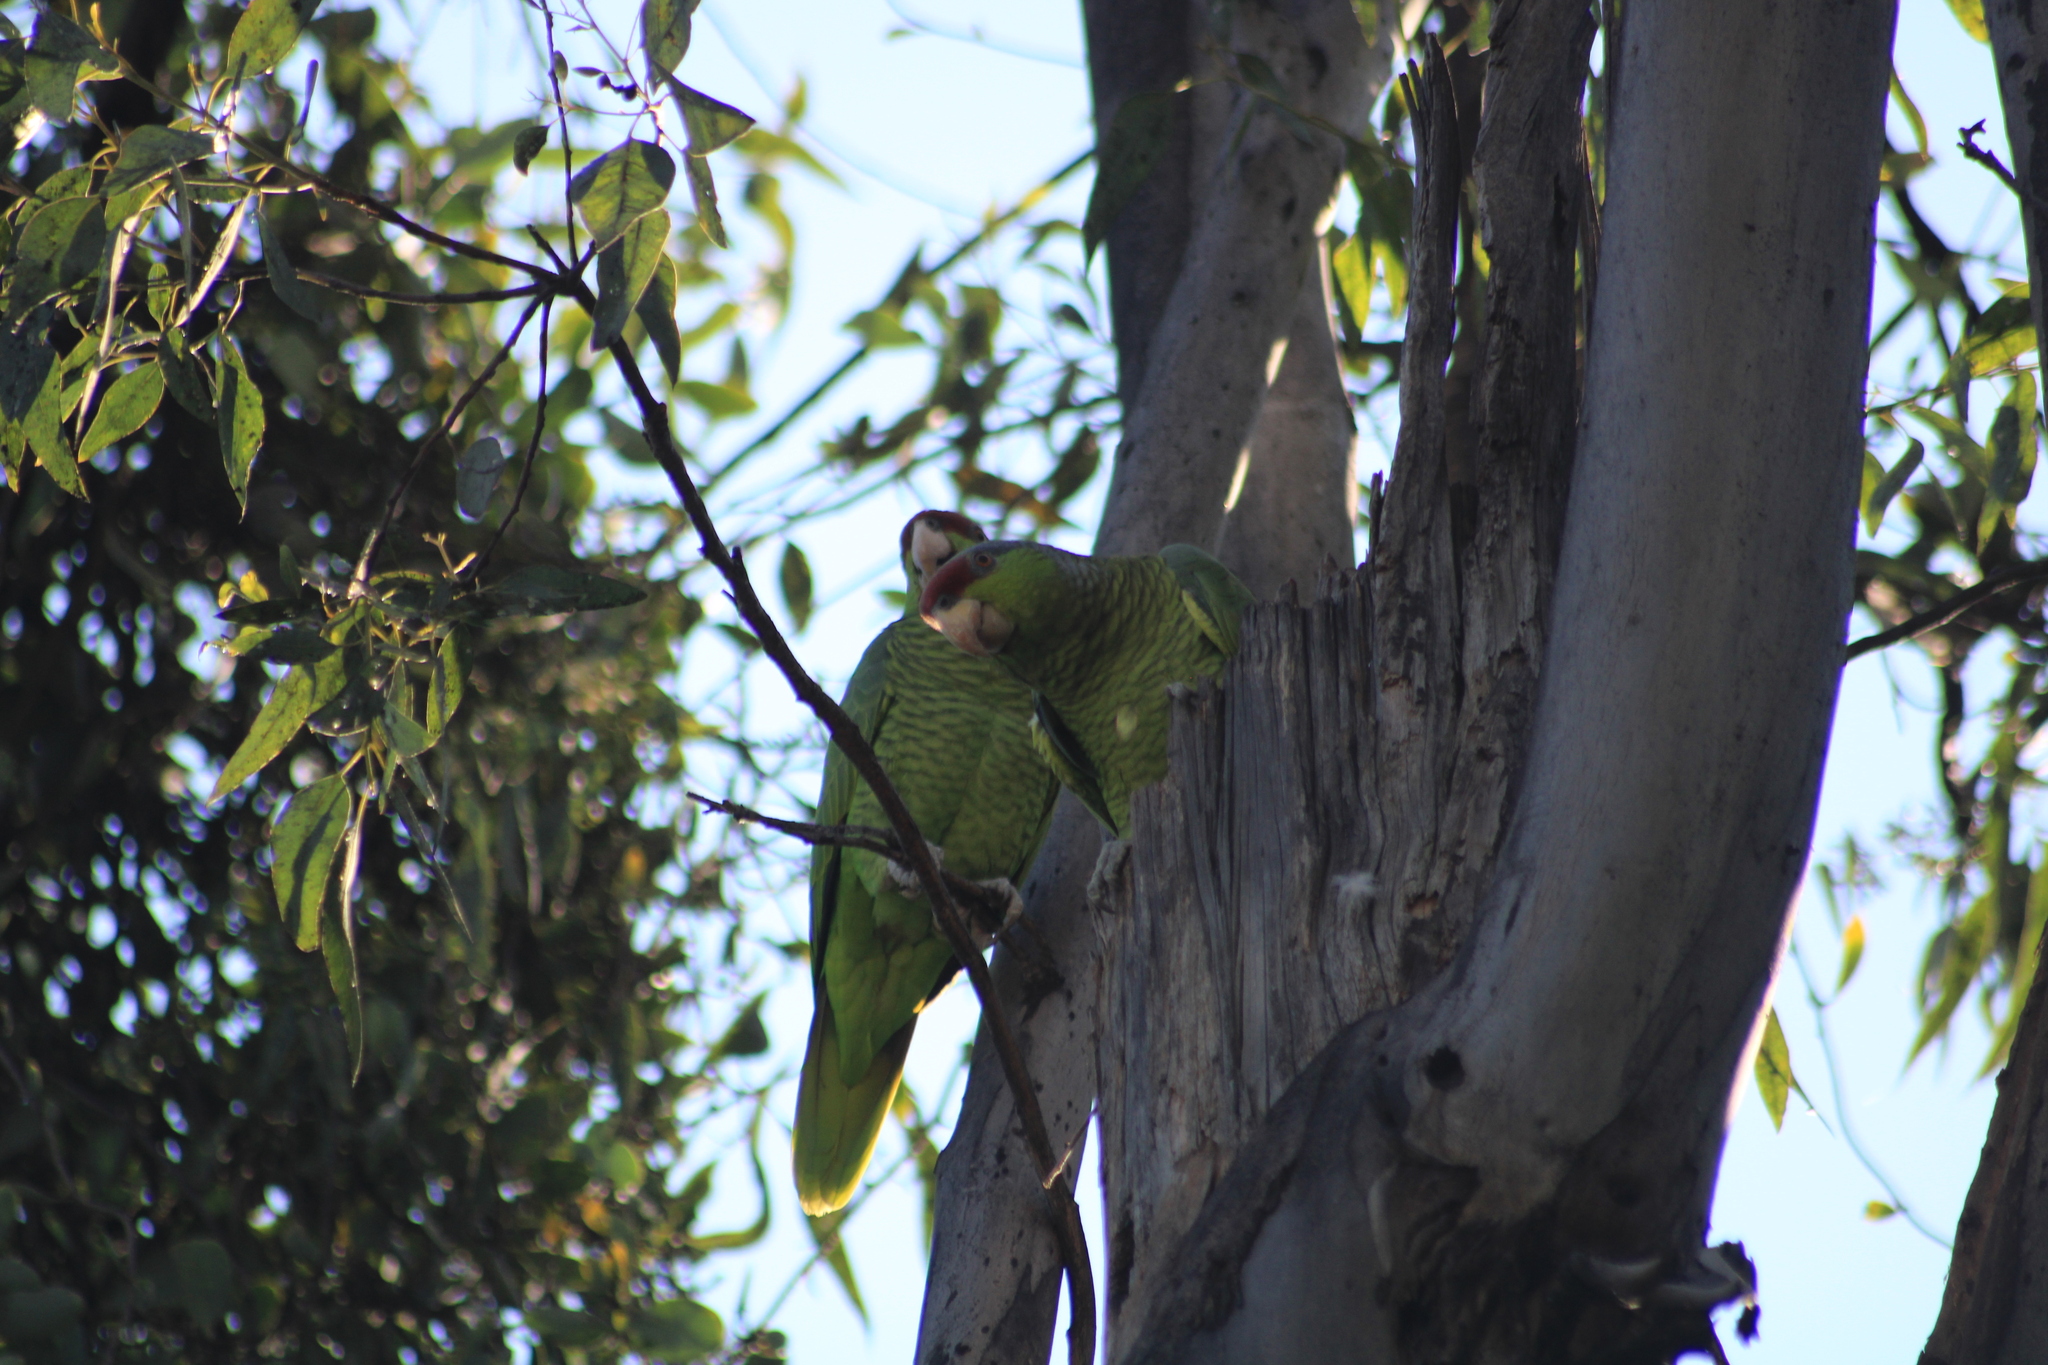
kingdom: Animalia
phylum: Chordata
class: Aves
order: Psittaciformes
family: Psittacidae
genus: Amazona
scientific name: Amazona finschi
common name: Lilac-crowned amazon
